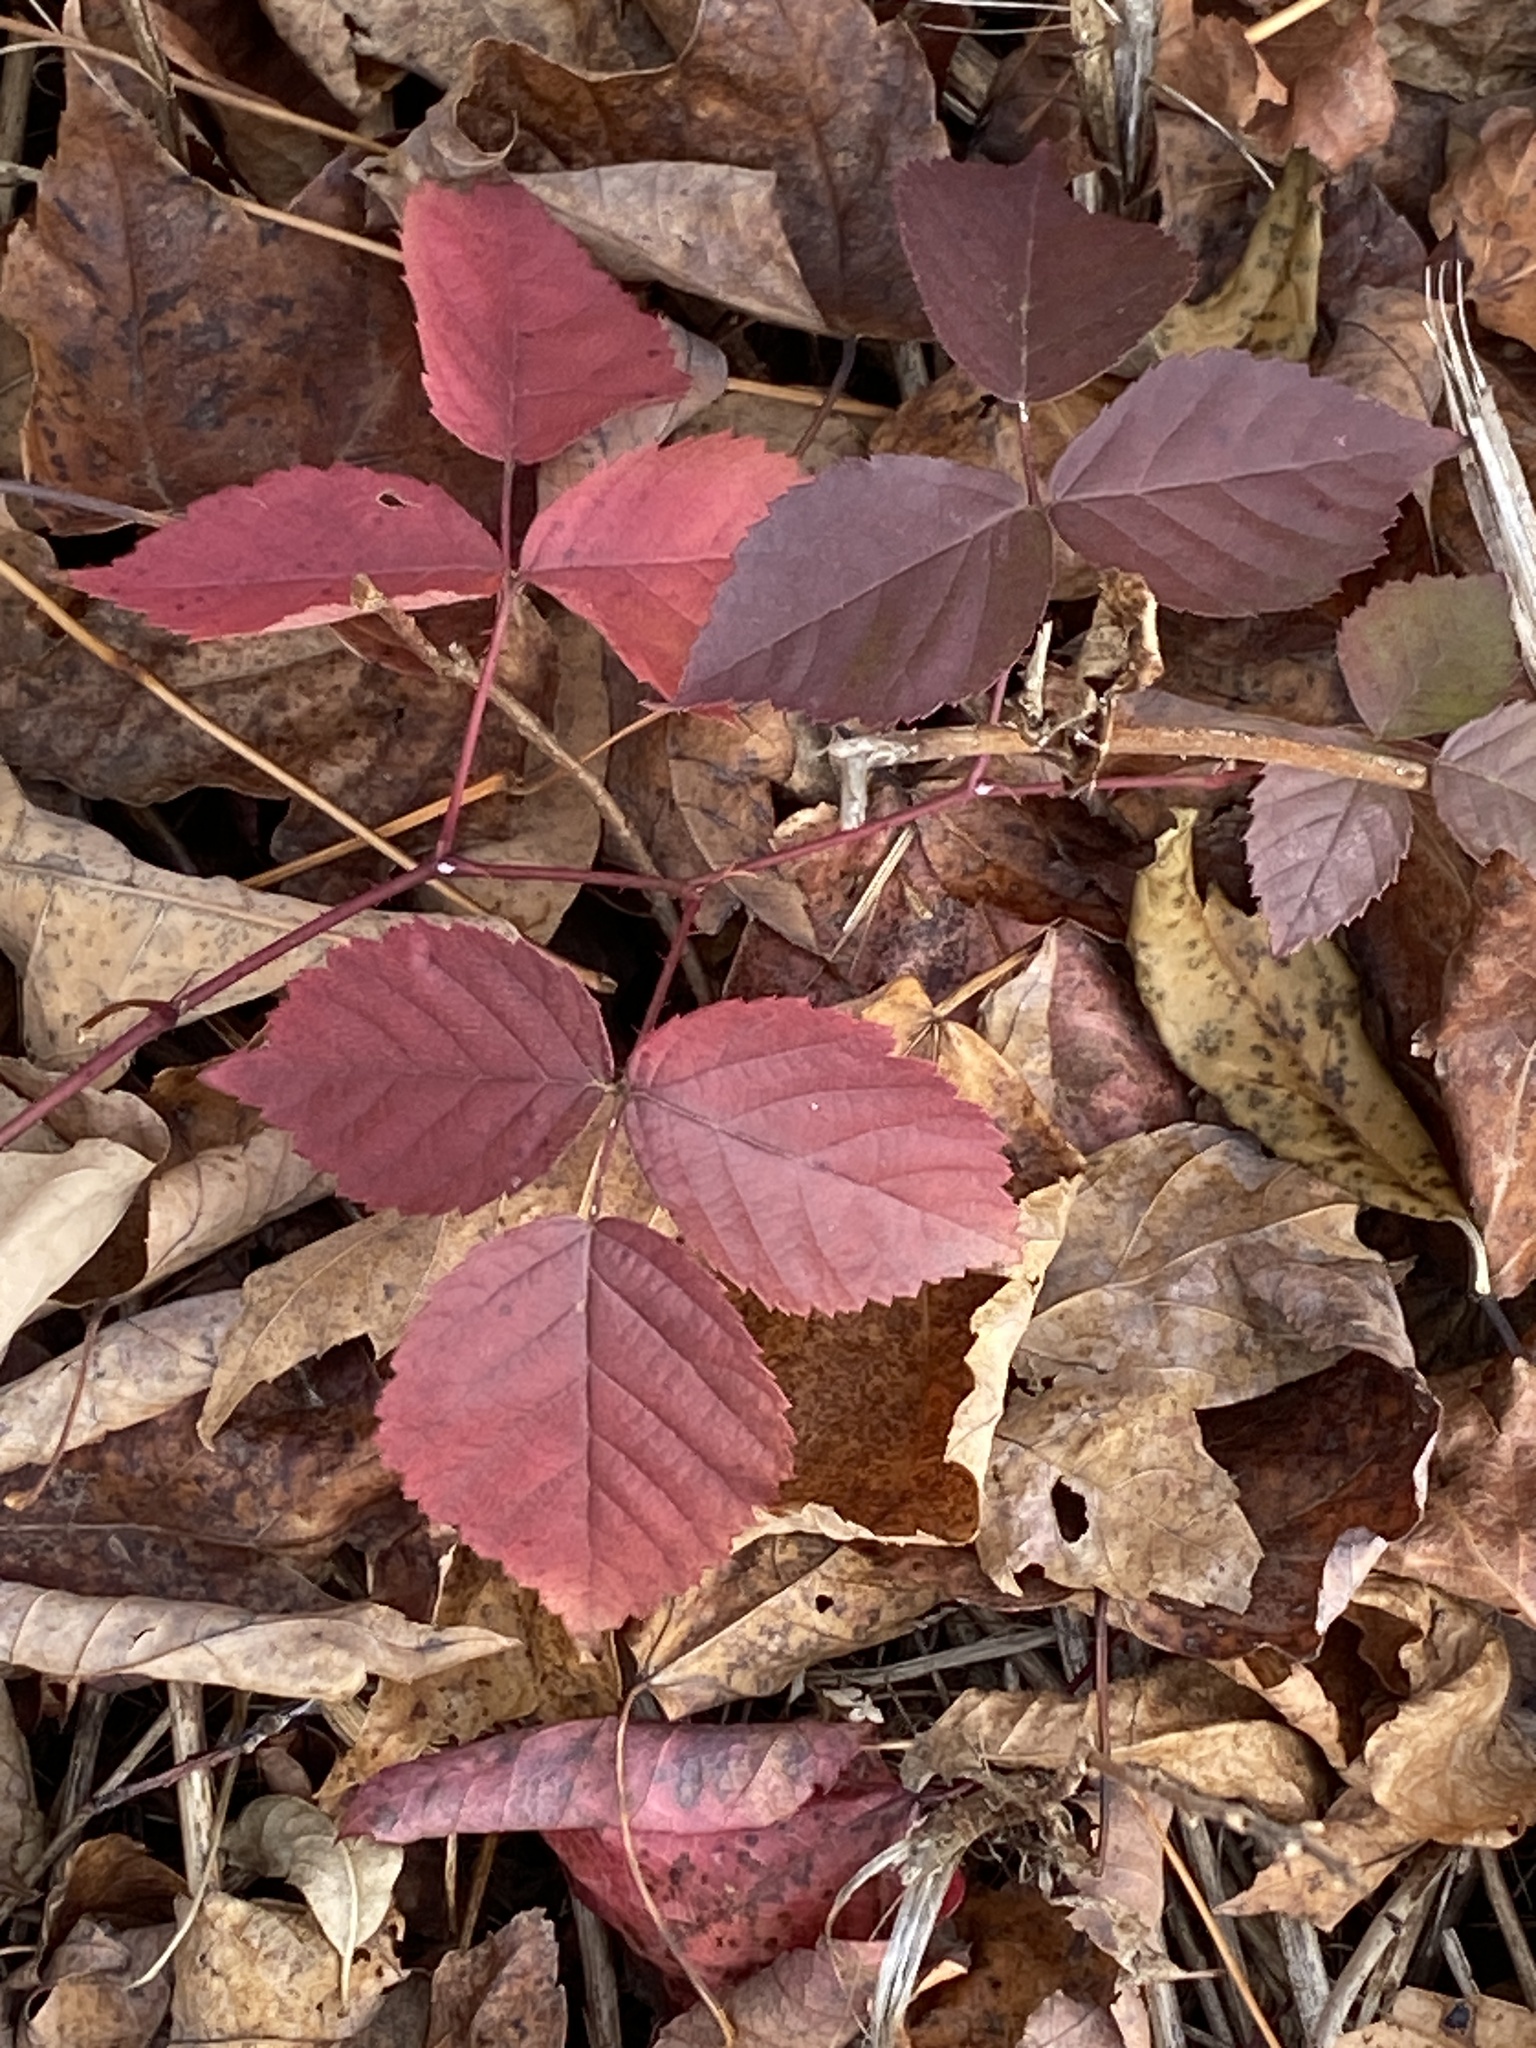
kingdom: Plantae
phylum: Tracheophyta
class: Magnoliopsida
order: Rosales
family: Rosaceae
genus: Rubus
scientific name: Rubus flagellaris
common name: American dewberry
